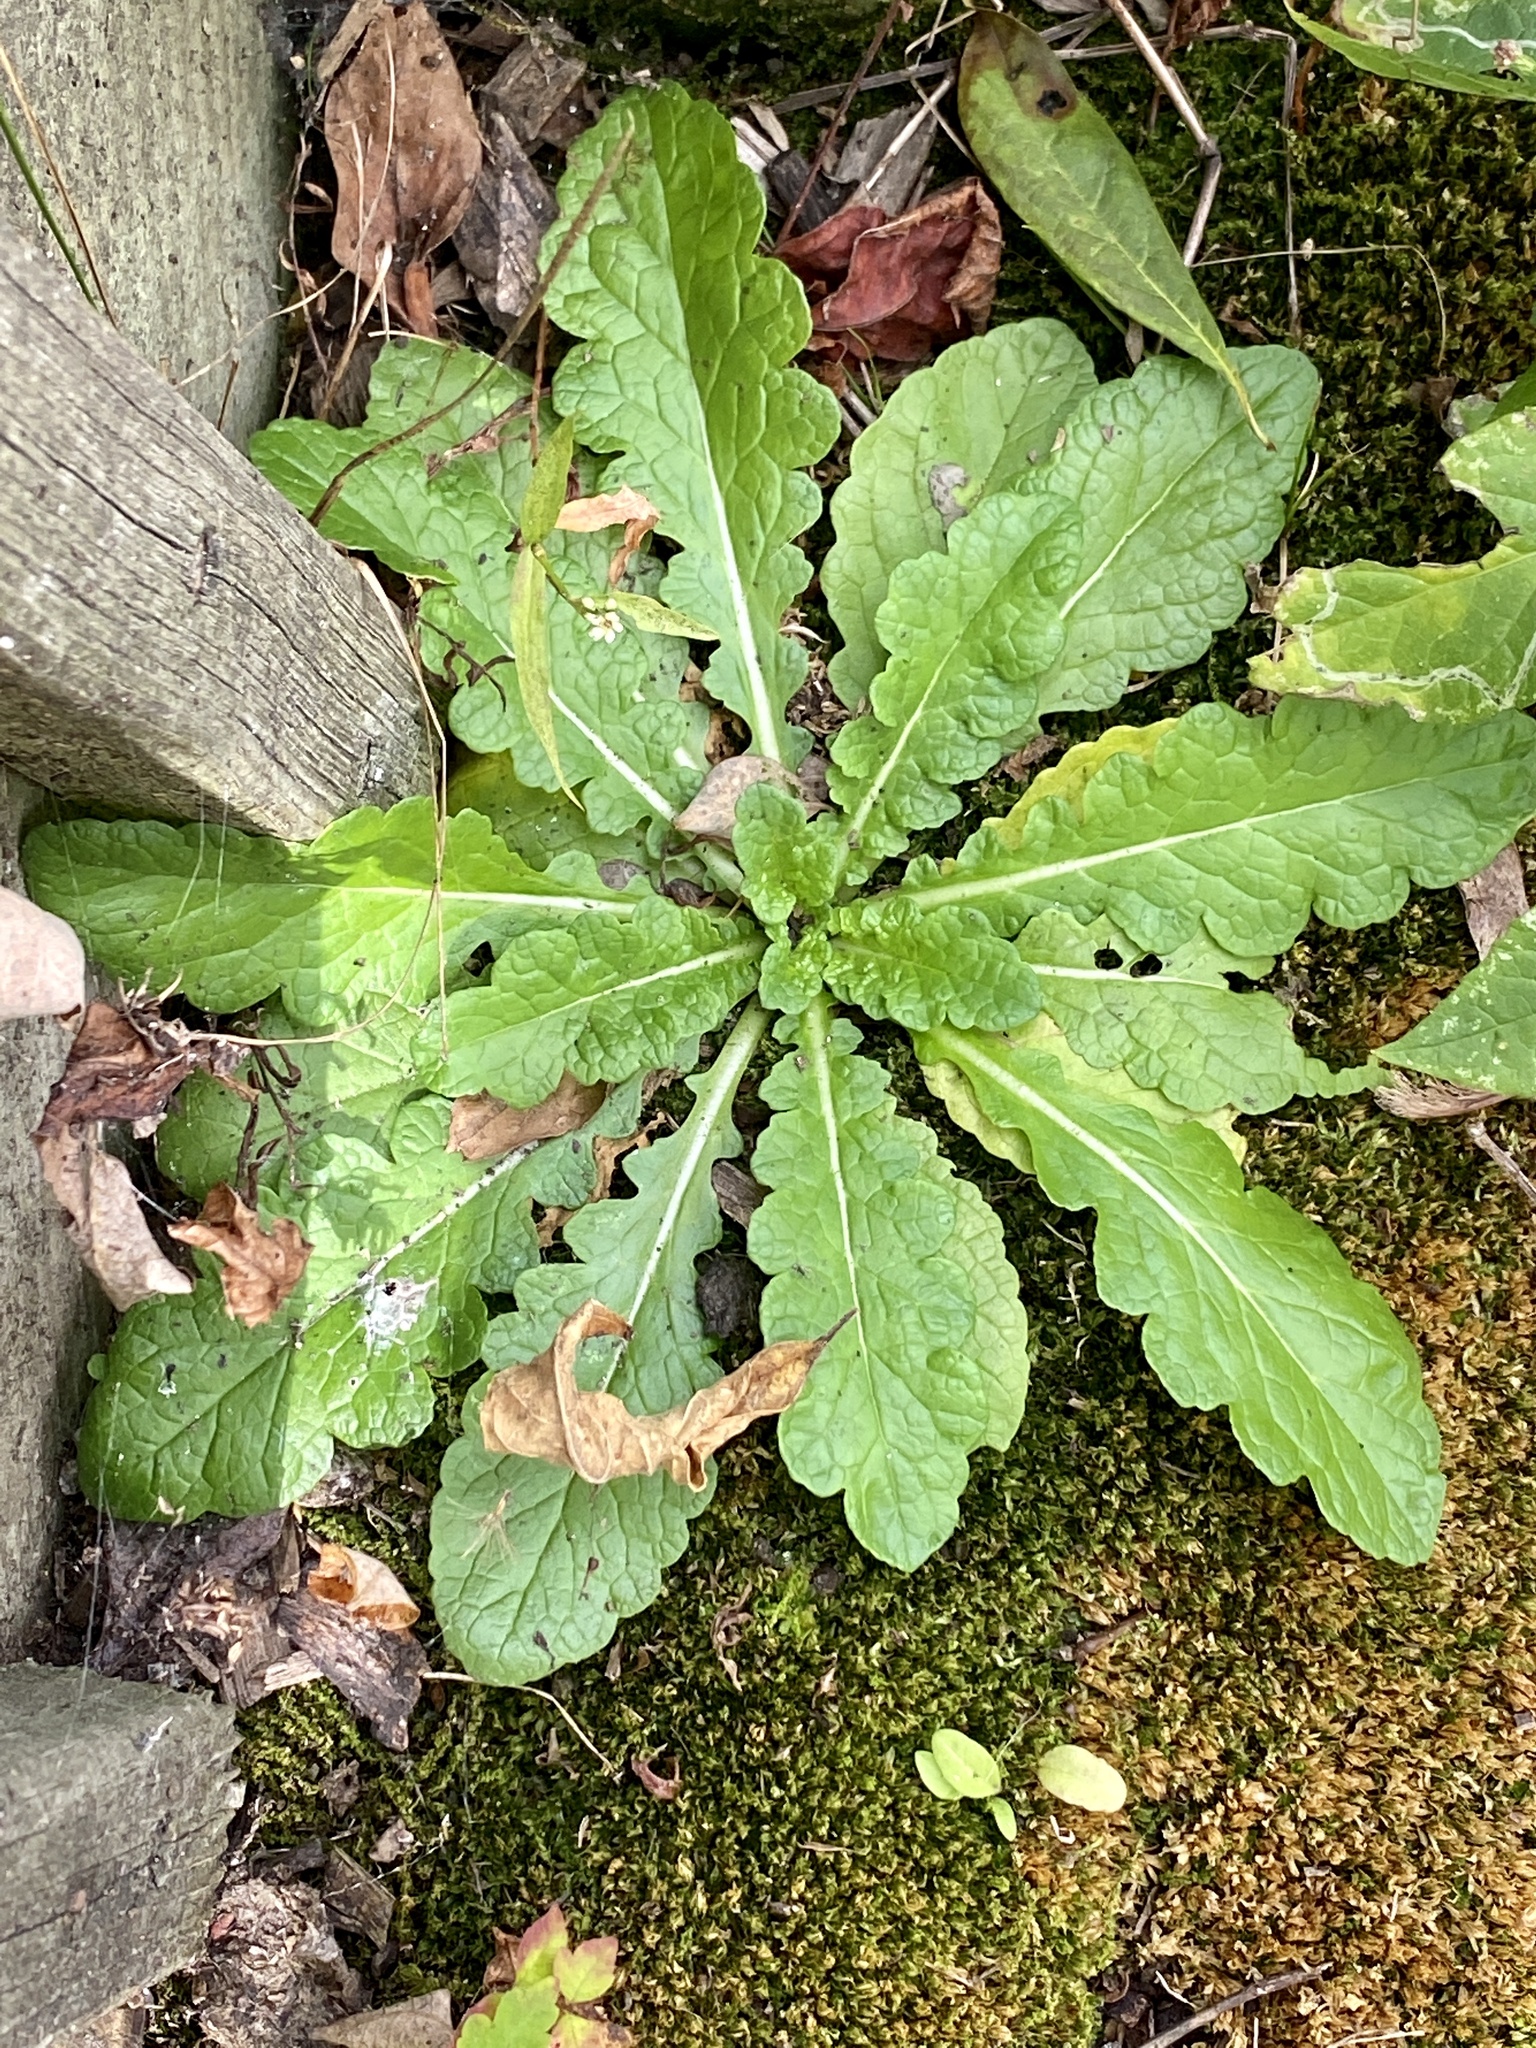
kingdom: Plantae
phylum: Tracheophyta
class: Magnoliopsida
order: Lamiales
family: Scrophulariaceae
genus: Verbascum
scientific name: Verbascum blattaria
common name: Moth mullein
